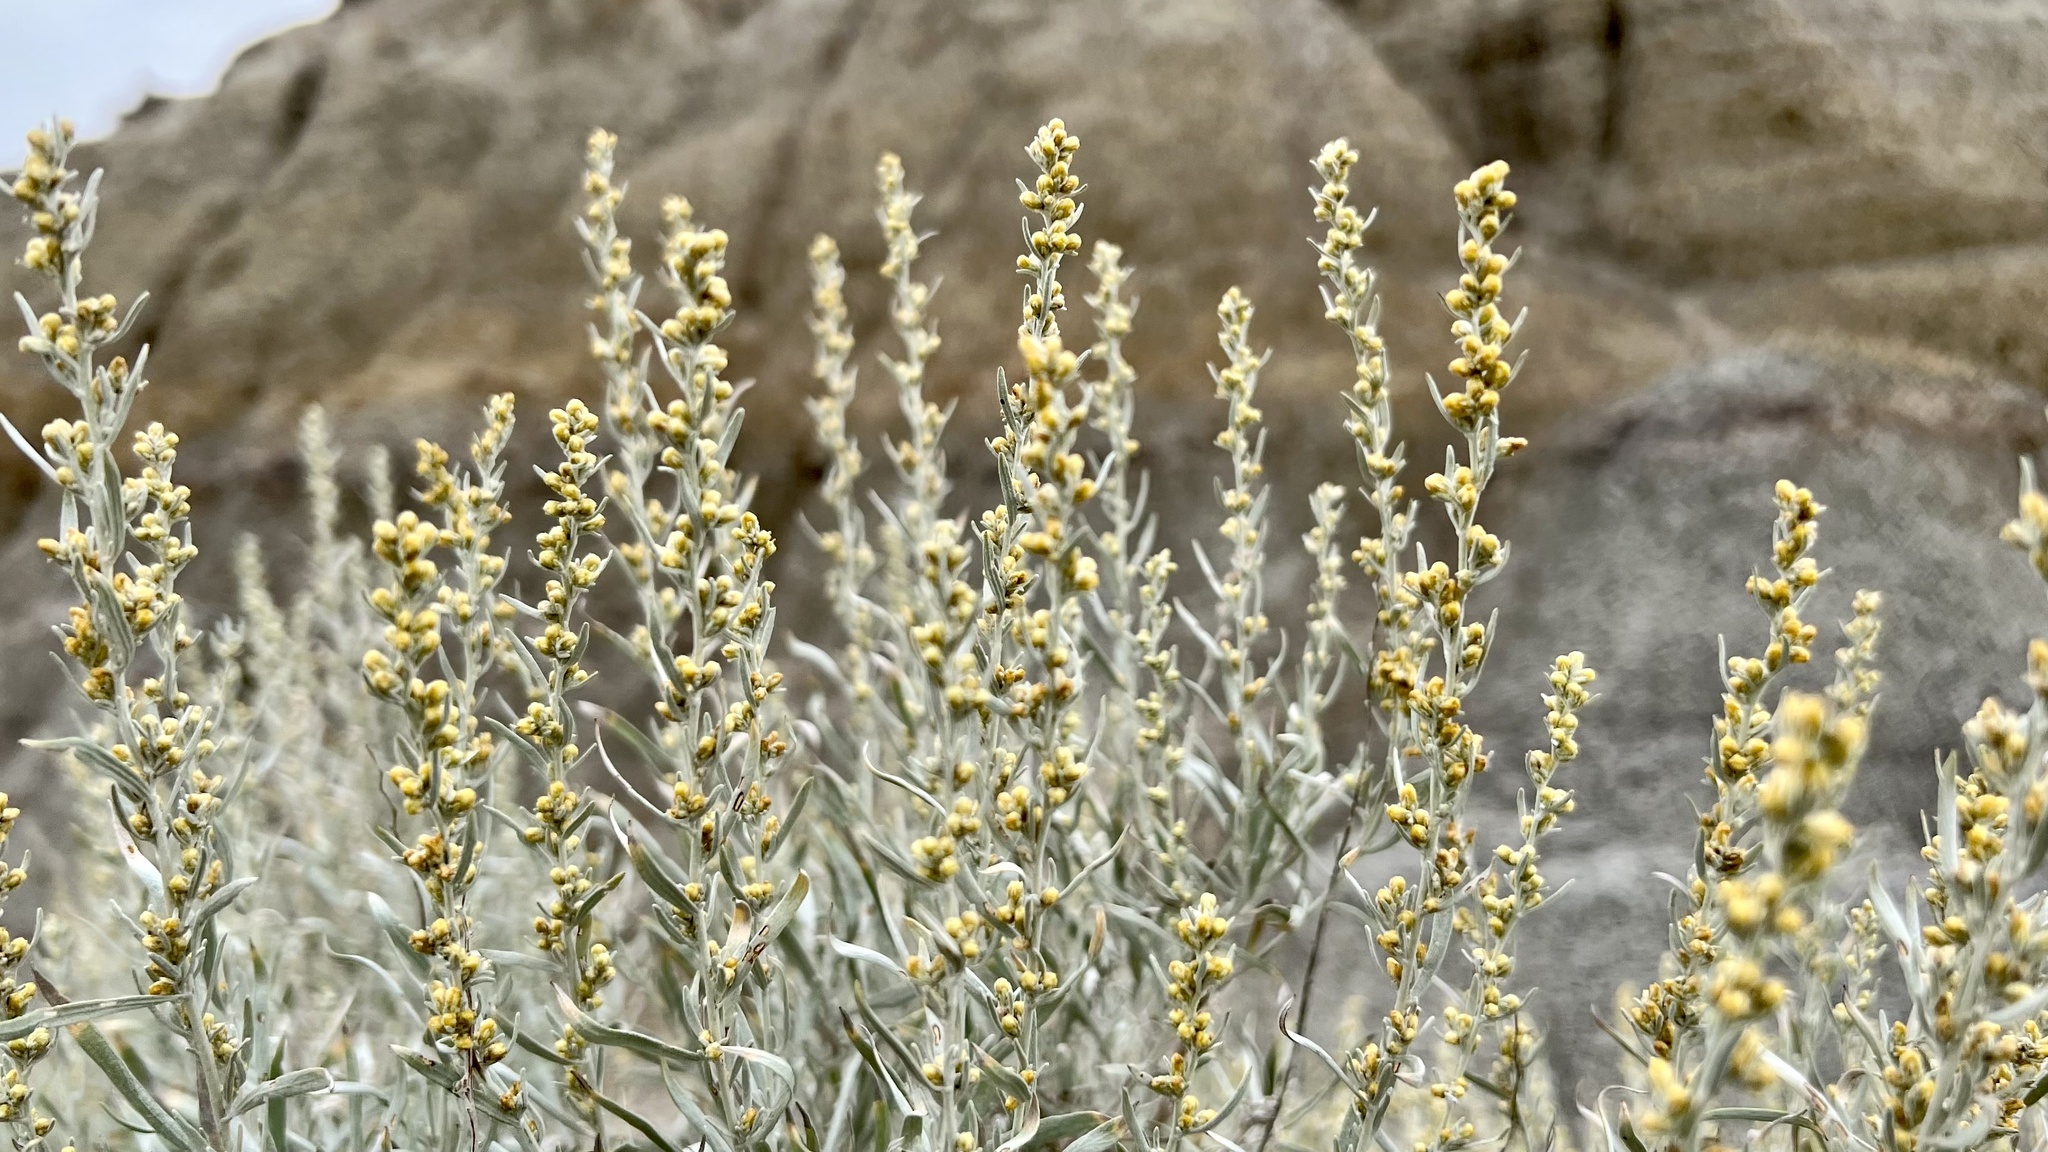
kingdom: Plantae
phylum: Tracheophyta
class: Magnoliopsida
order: Asterales
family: Asteraceae
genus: Artemisia
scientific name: Artemisia cana
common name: Silver sagebrush
